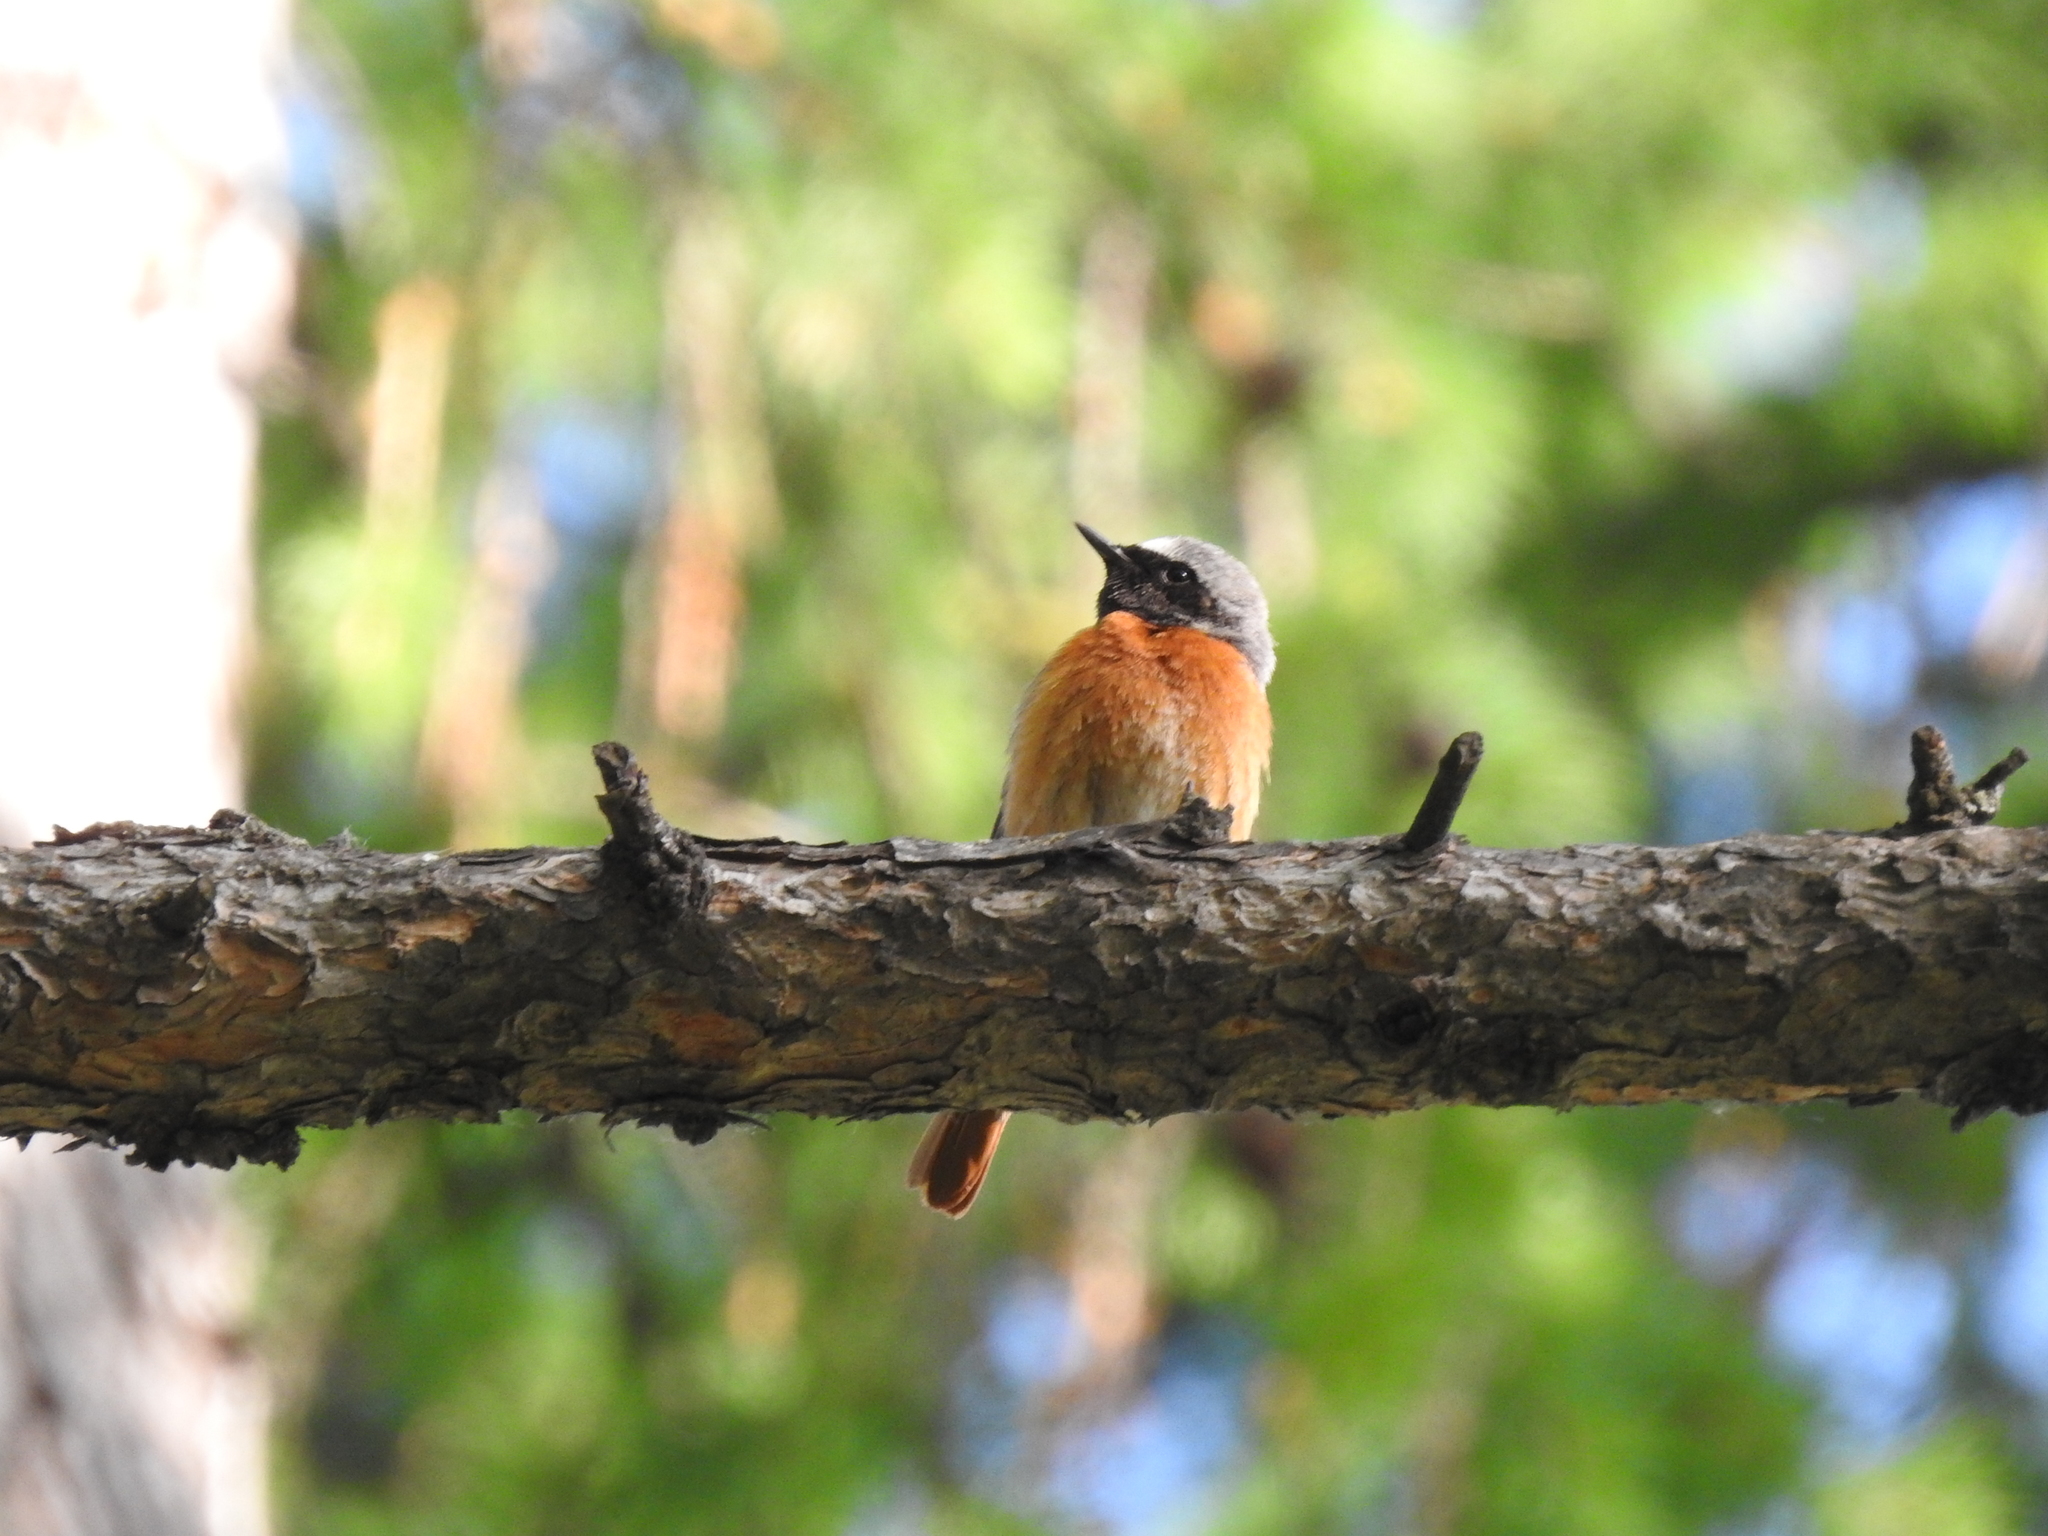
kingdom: Animalia
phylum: Chordata
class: Aves
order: Passeriformes
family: Muscicapidae
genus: Phoenicurus
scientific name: Phoenicurus phoenicurus
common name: Common redstart
